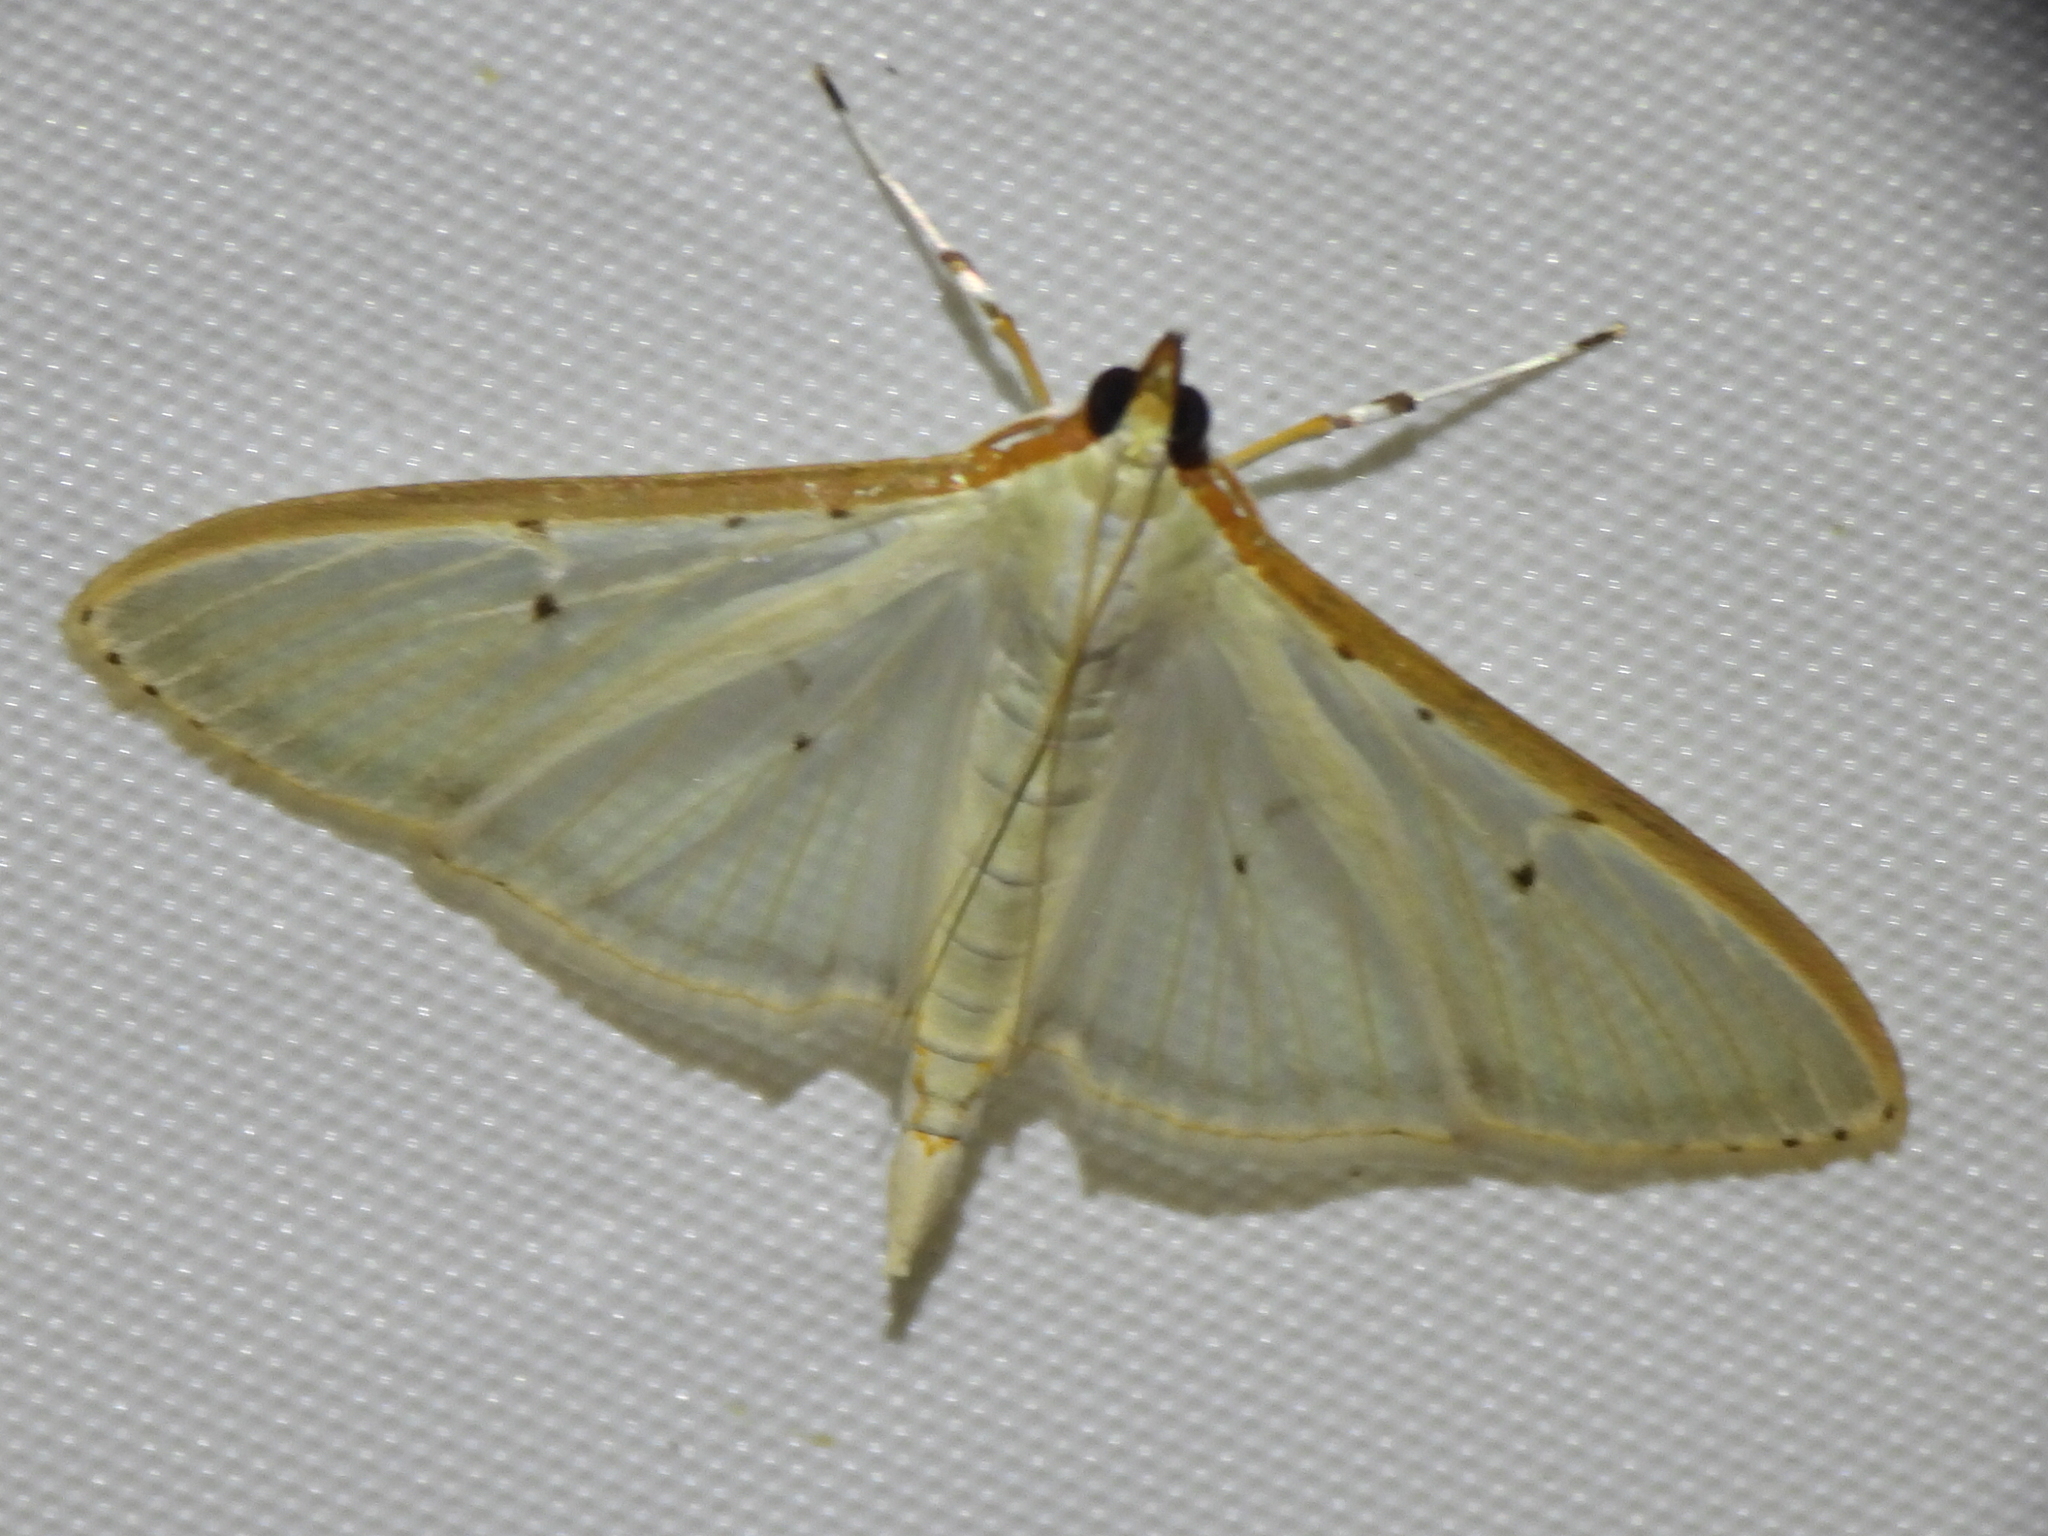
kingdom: Animalia
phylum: Arthropoda
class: Insecta
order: Lepidoptera
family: Crambidae
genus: Palpita
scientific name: Palpita quadristigmalis
